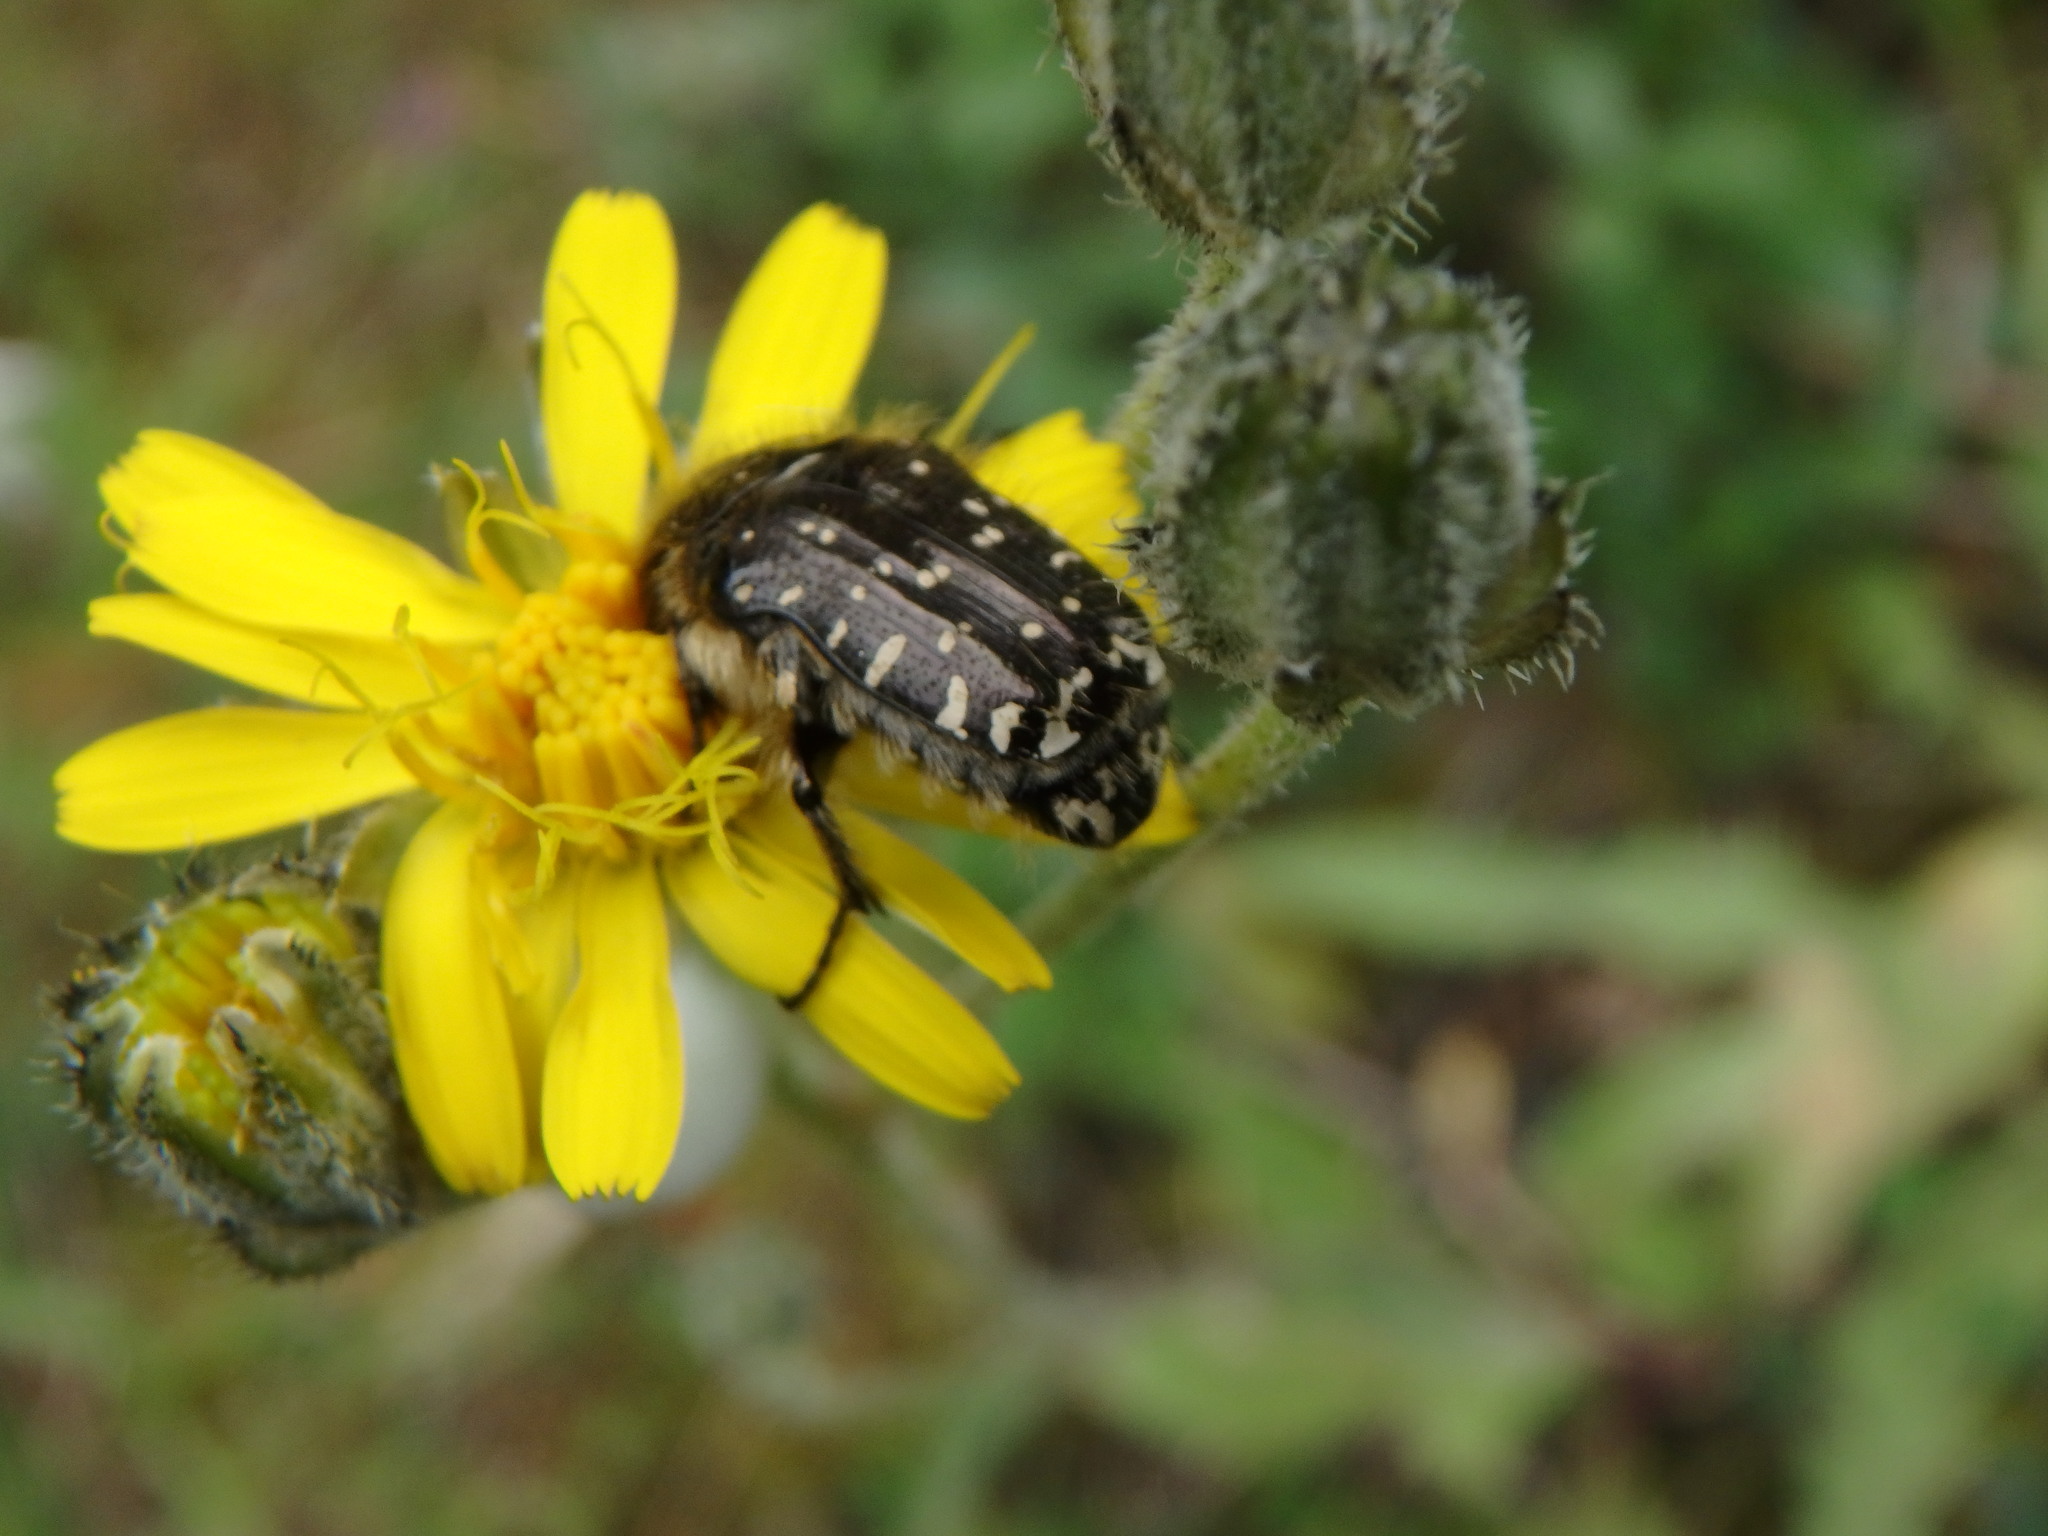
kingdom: Animalia
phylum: Arthropoda
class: Insecta
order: Coleoptera
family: Scarabaeidae
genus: Oxythyrea
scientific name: Oxythyrea funesta
